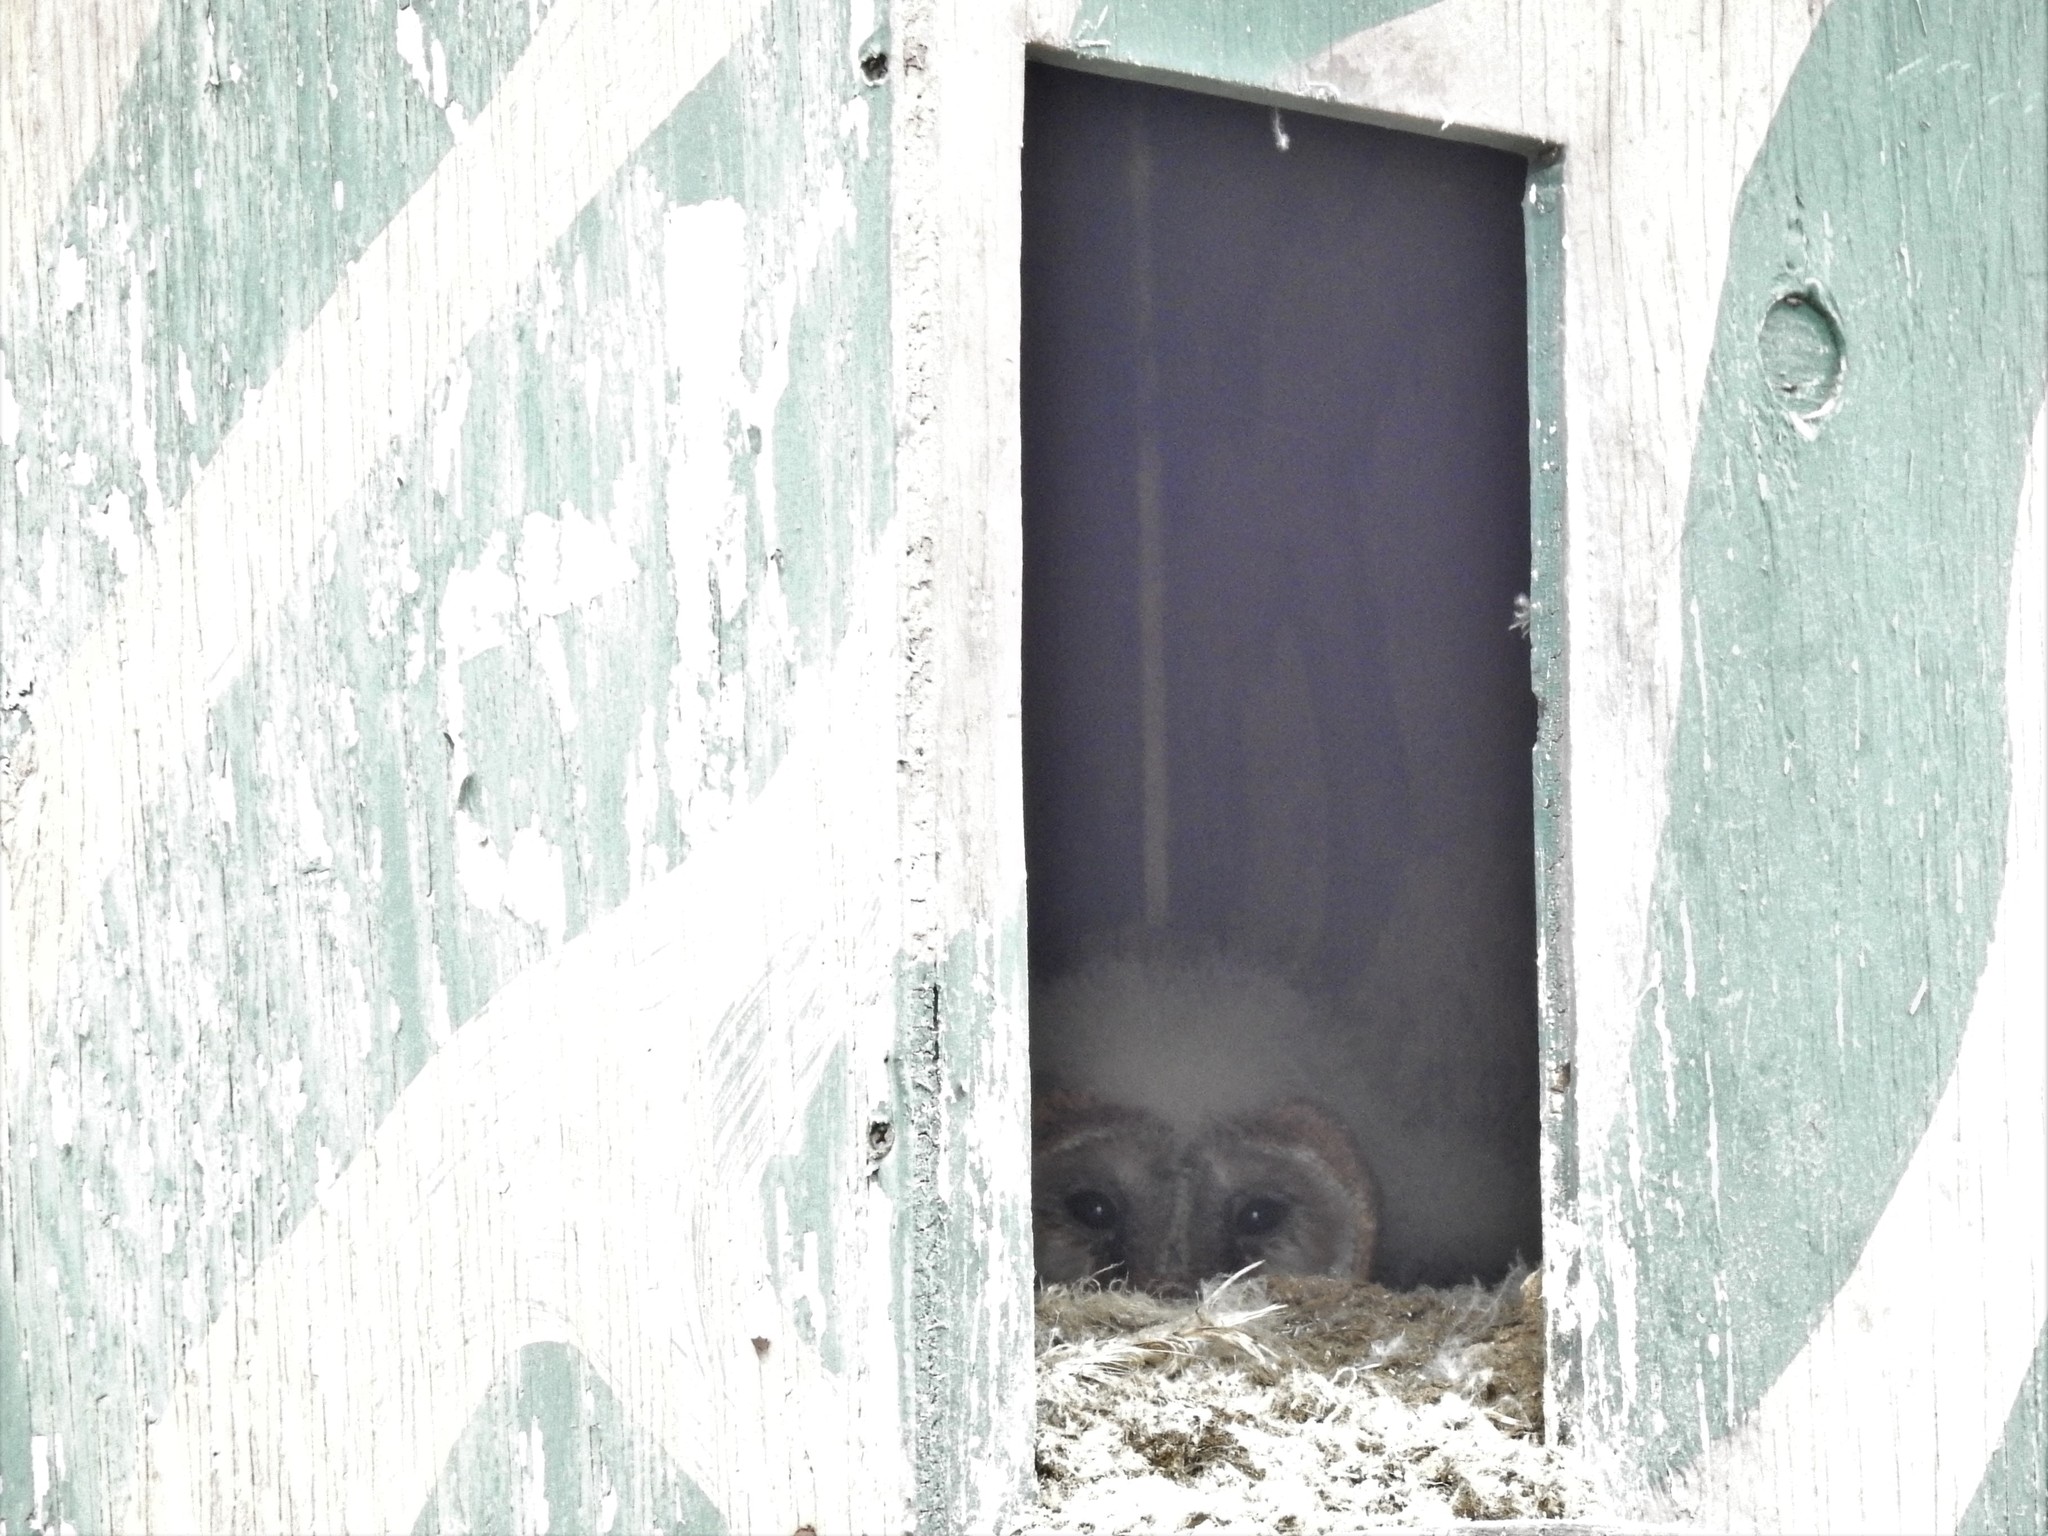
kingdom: Animalia
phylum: Chordata
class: Aves
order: Strigiformes
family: Tytonidae
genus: Tyto
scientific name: Tyto alba
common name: Barn owl
